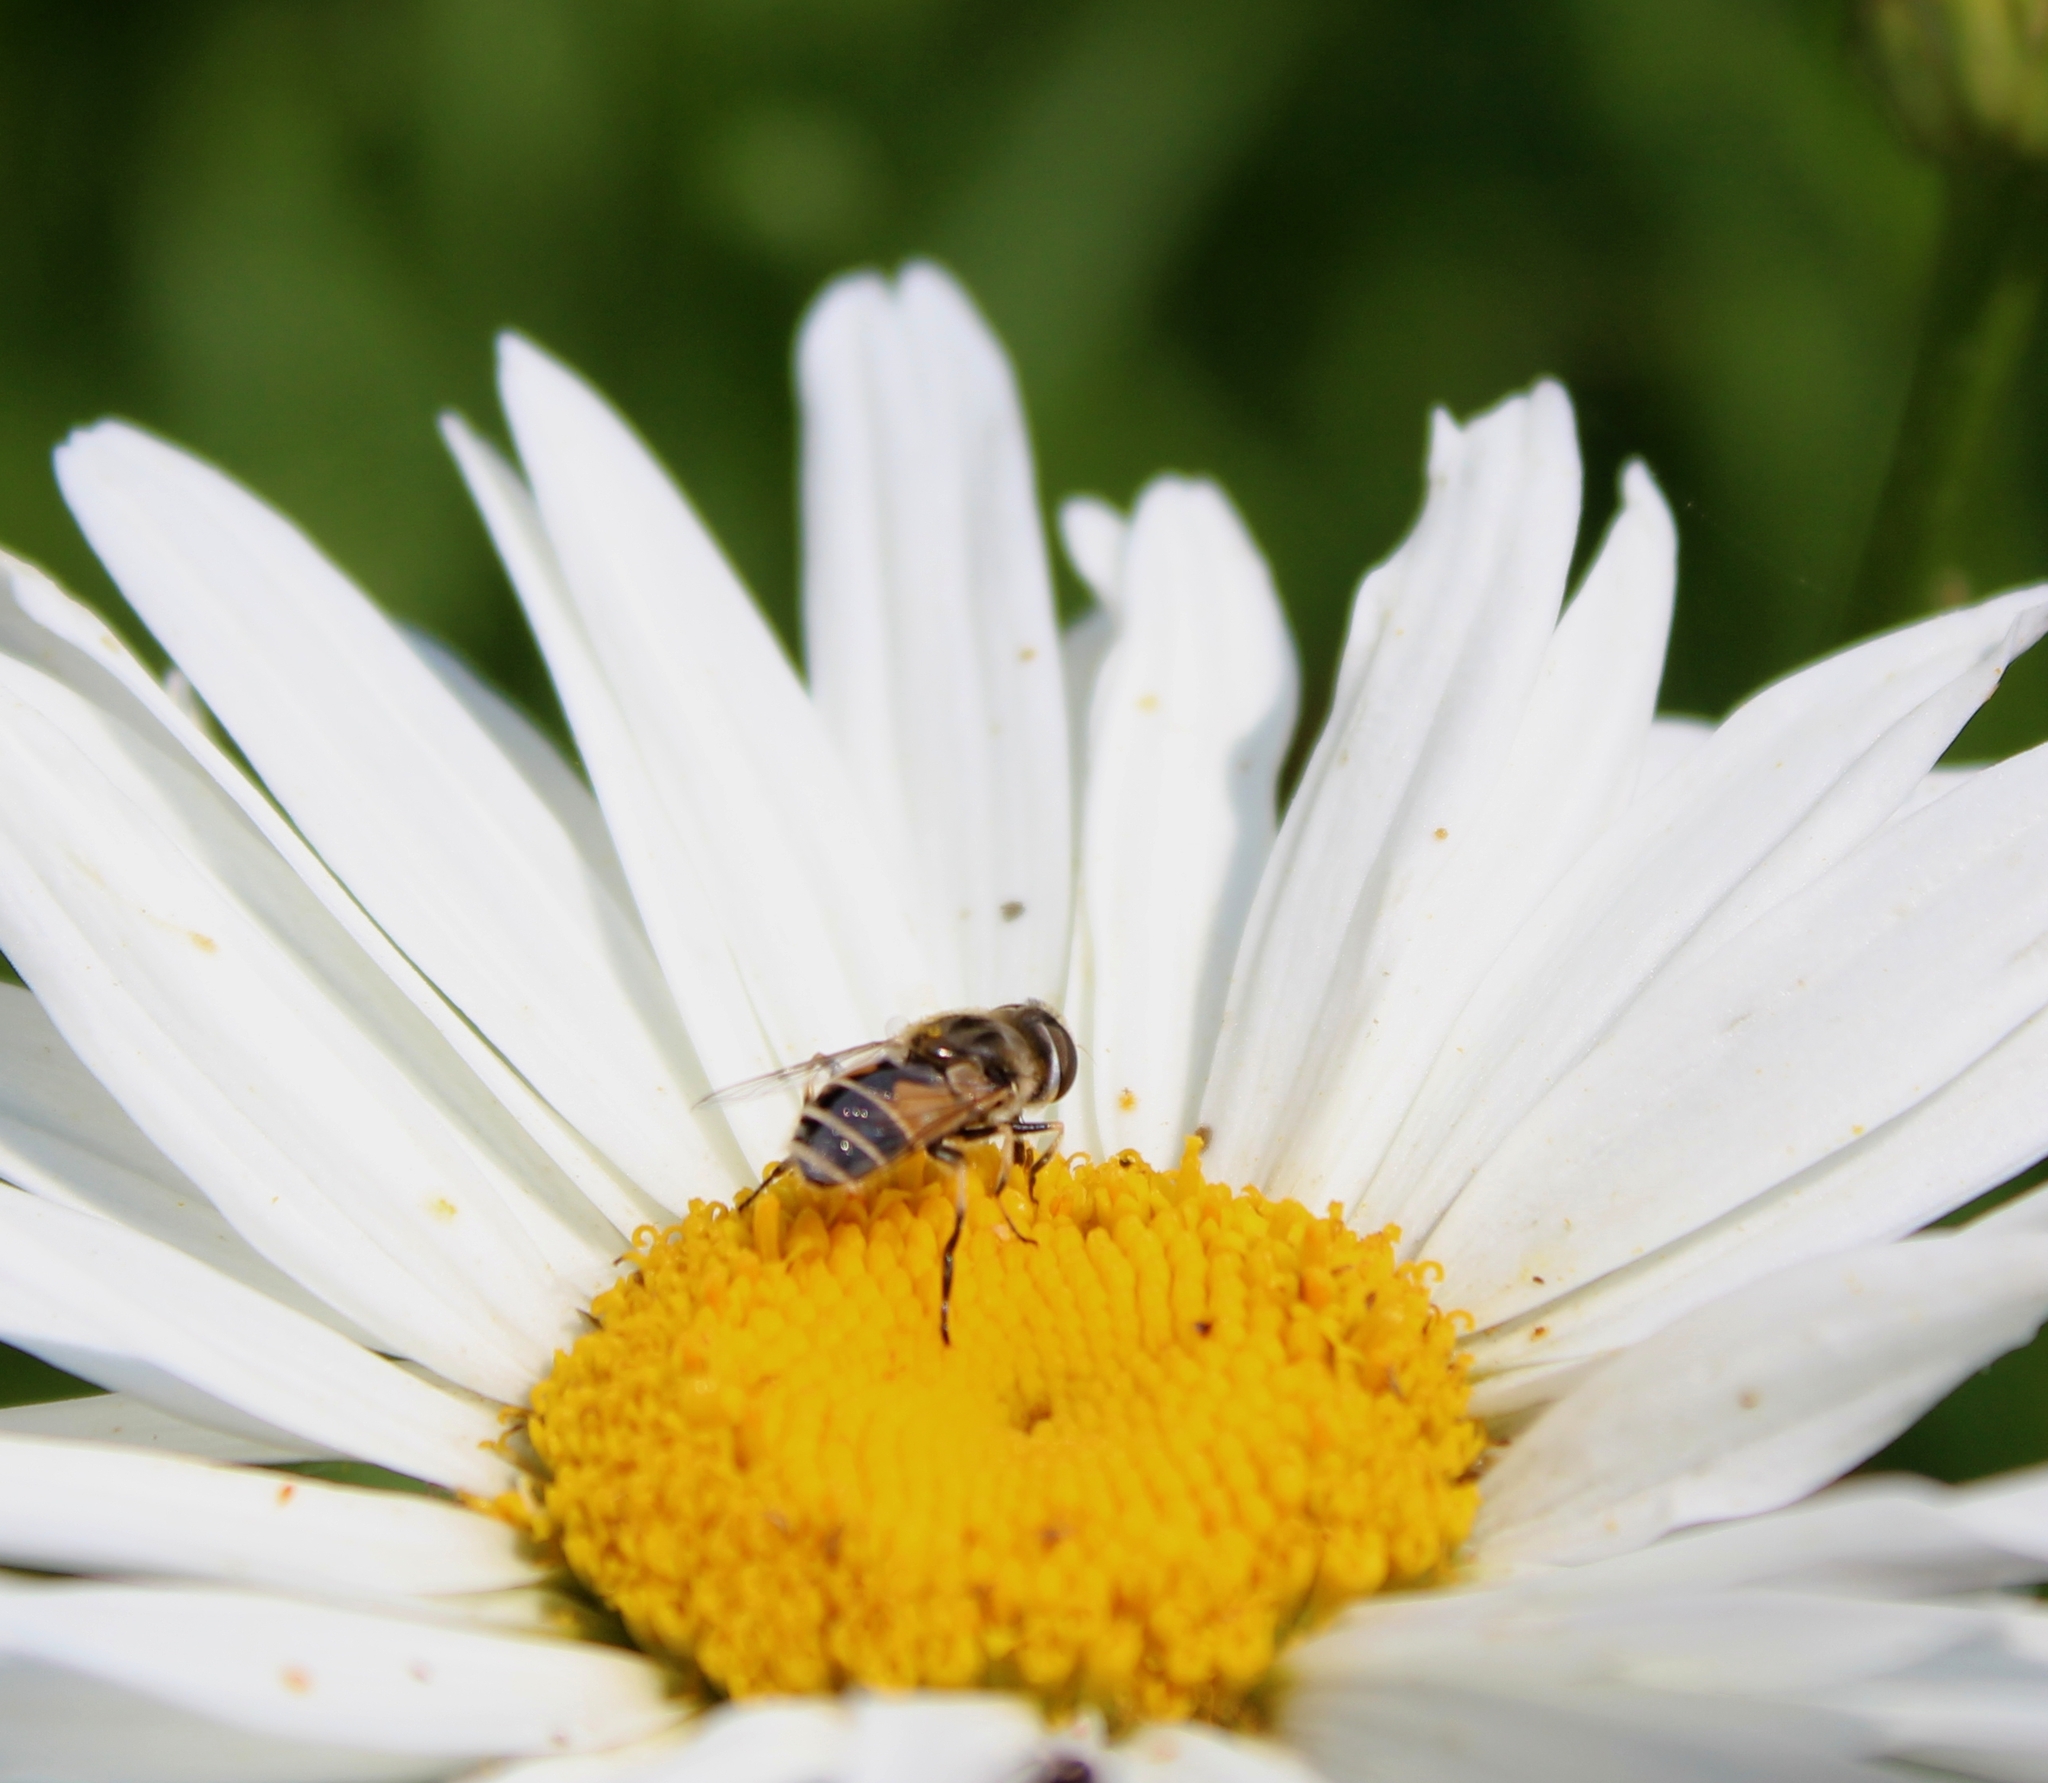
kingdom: Animalia
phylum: Arthropoda
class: Insecta
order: Diptera
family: Syrphidae
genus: Eristalis
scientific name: Eristalis arbustorum
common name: Hover fly
